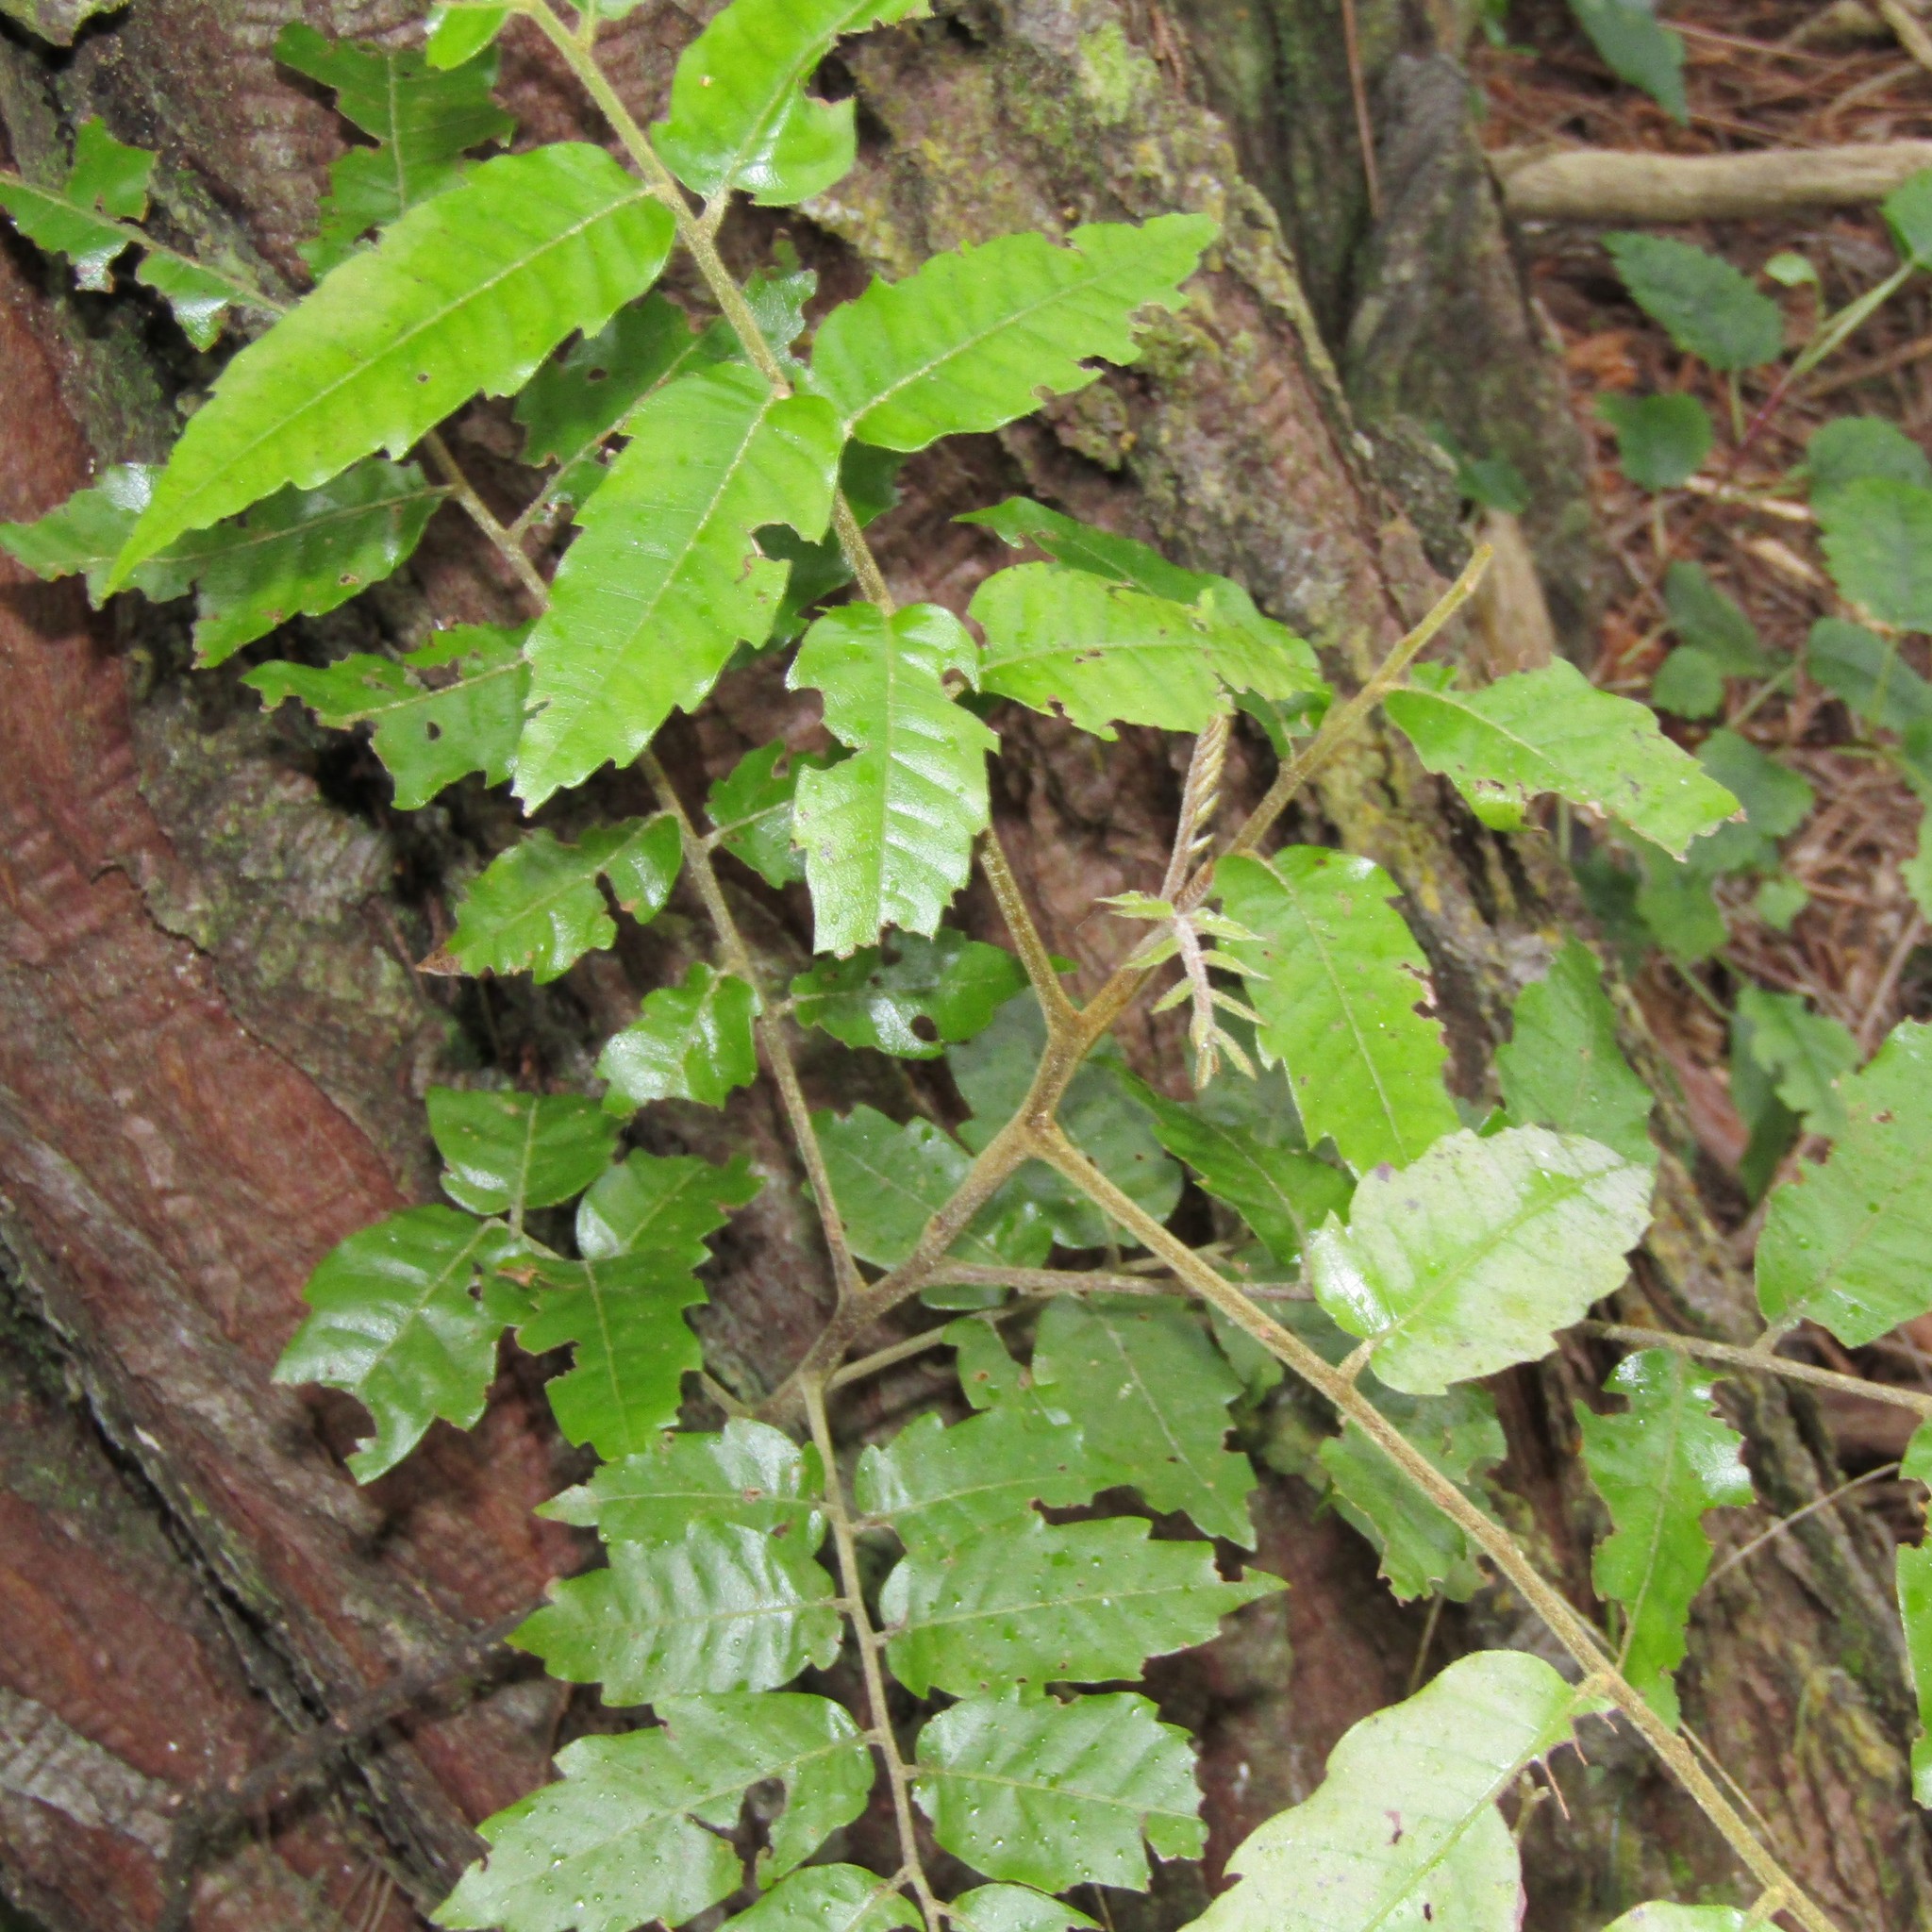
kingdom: Plantae
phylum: Tracheophyta
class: Magnoliopsida
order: Sapindales
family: Sapindaceae
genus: Alectryon
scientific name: Alectryon excelsus
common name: Three kings titoki
